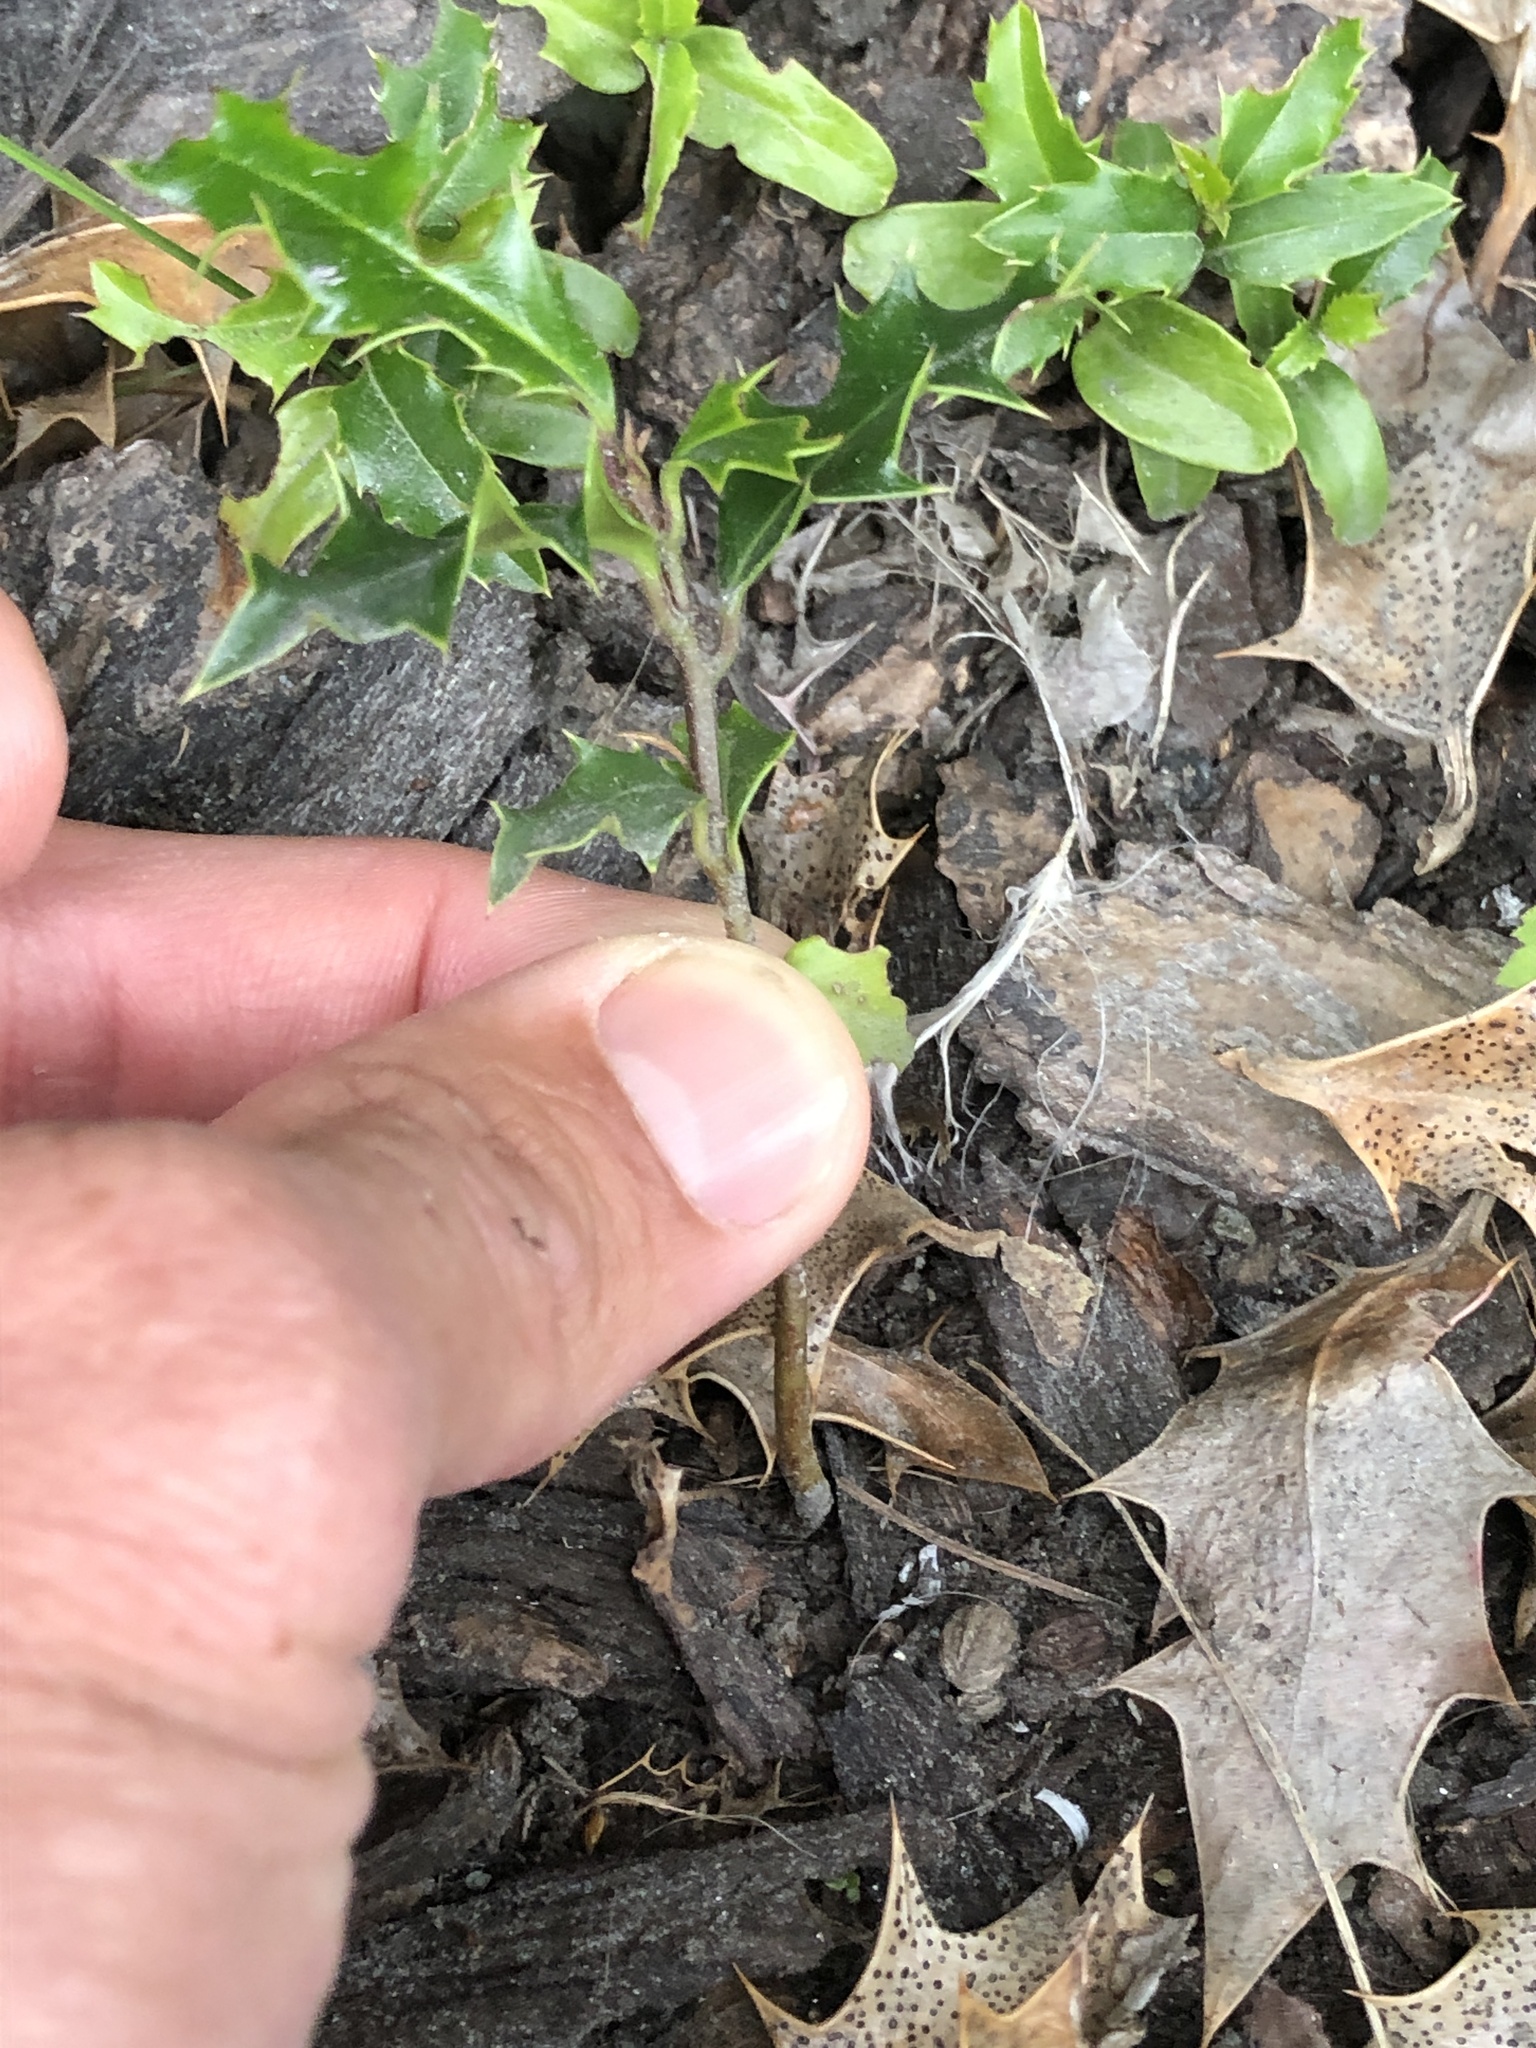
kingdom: Plantae
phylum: Tracheophyta
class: Magnoliopsida
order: Aquifoliales
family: Aquifoliaceae
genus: Ilex
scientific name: Ilex aquifolium
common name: English holly
